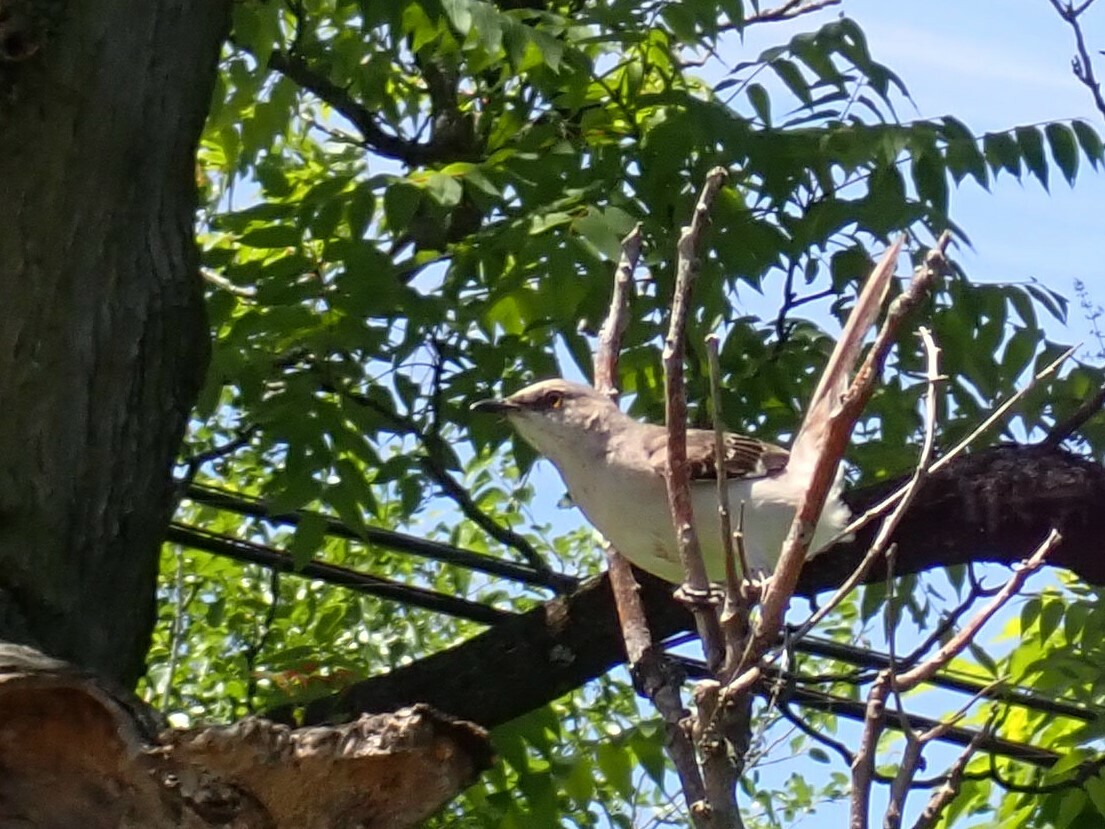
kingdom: Animalia
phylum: Chordata
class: Aves
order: Passeriformes
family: Mimidae
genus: Mimus
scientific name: Mimus polyglottos
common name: Northern mockingbird
